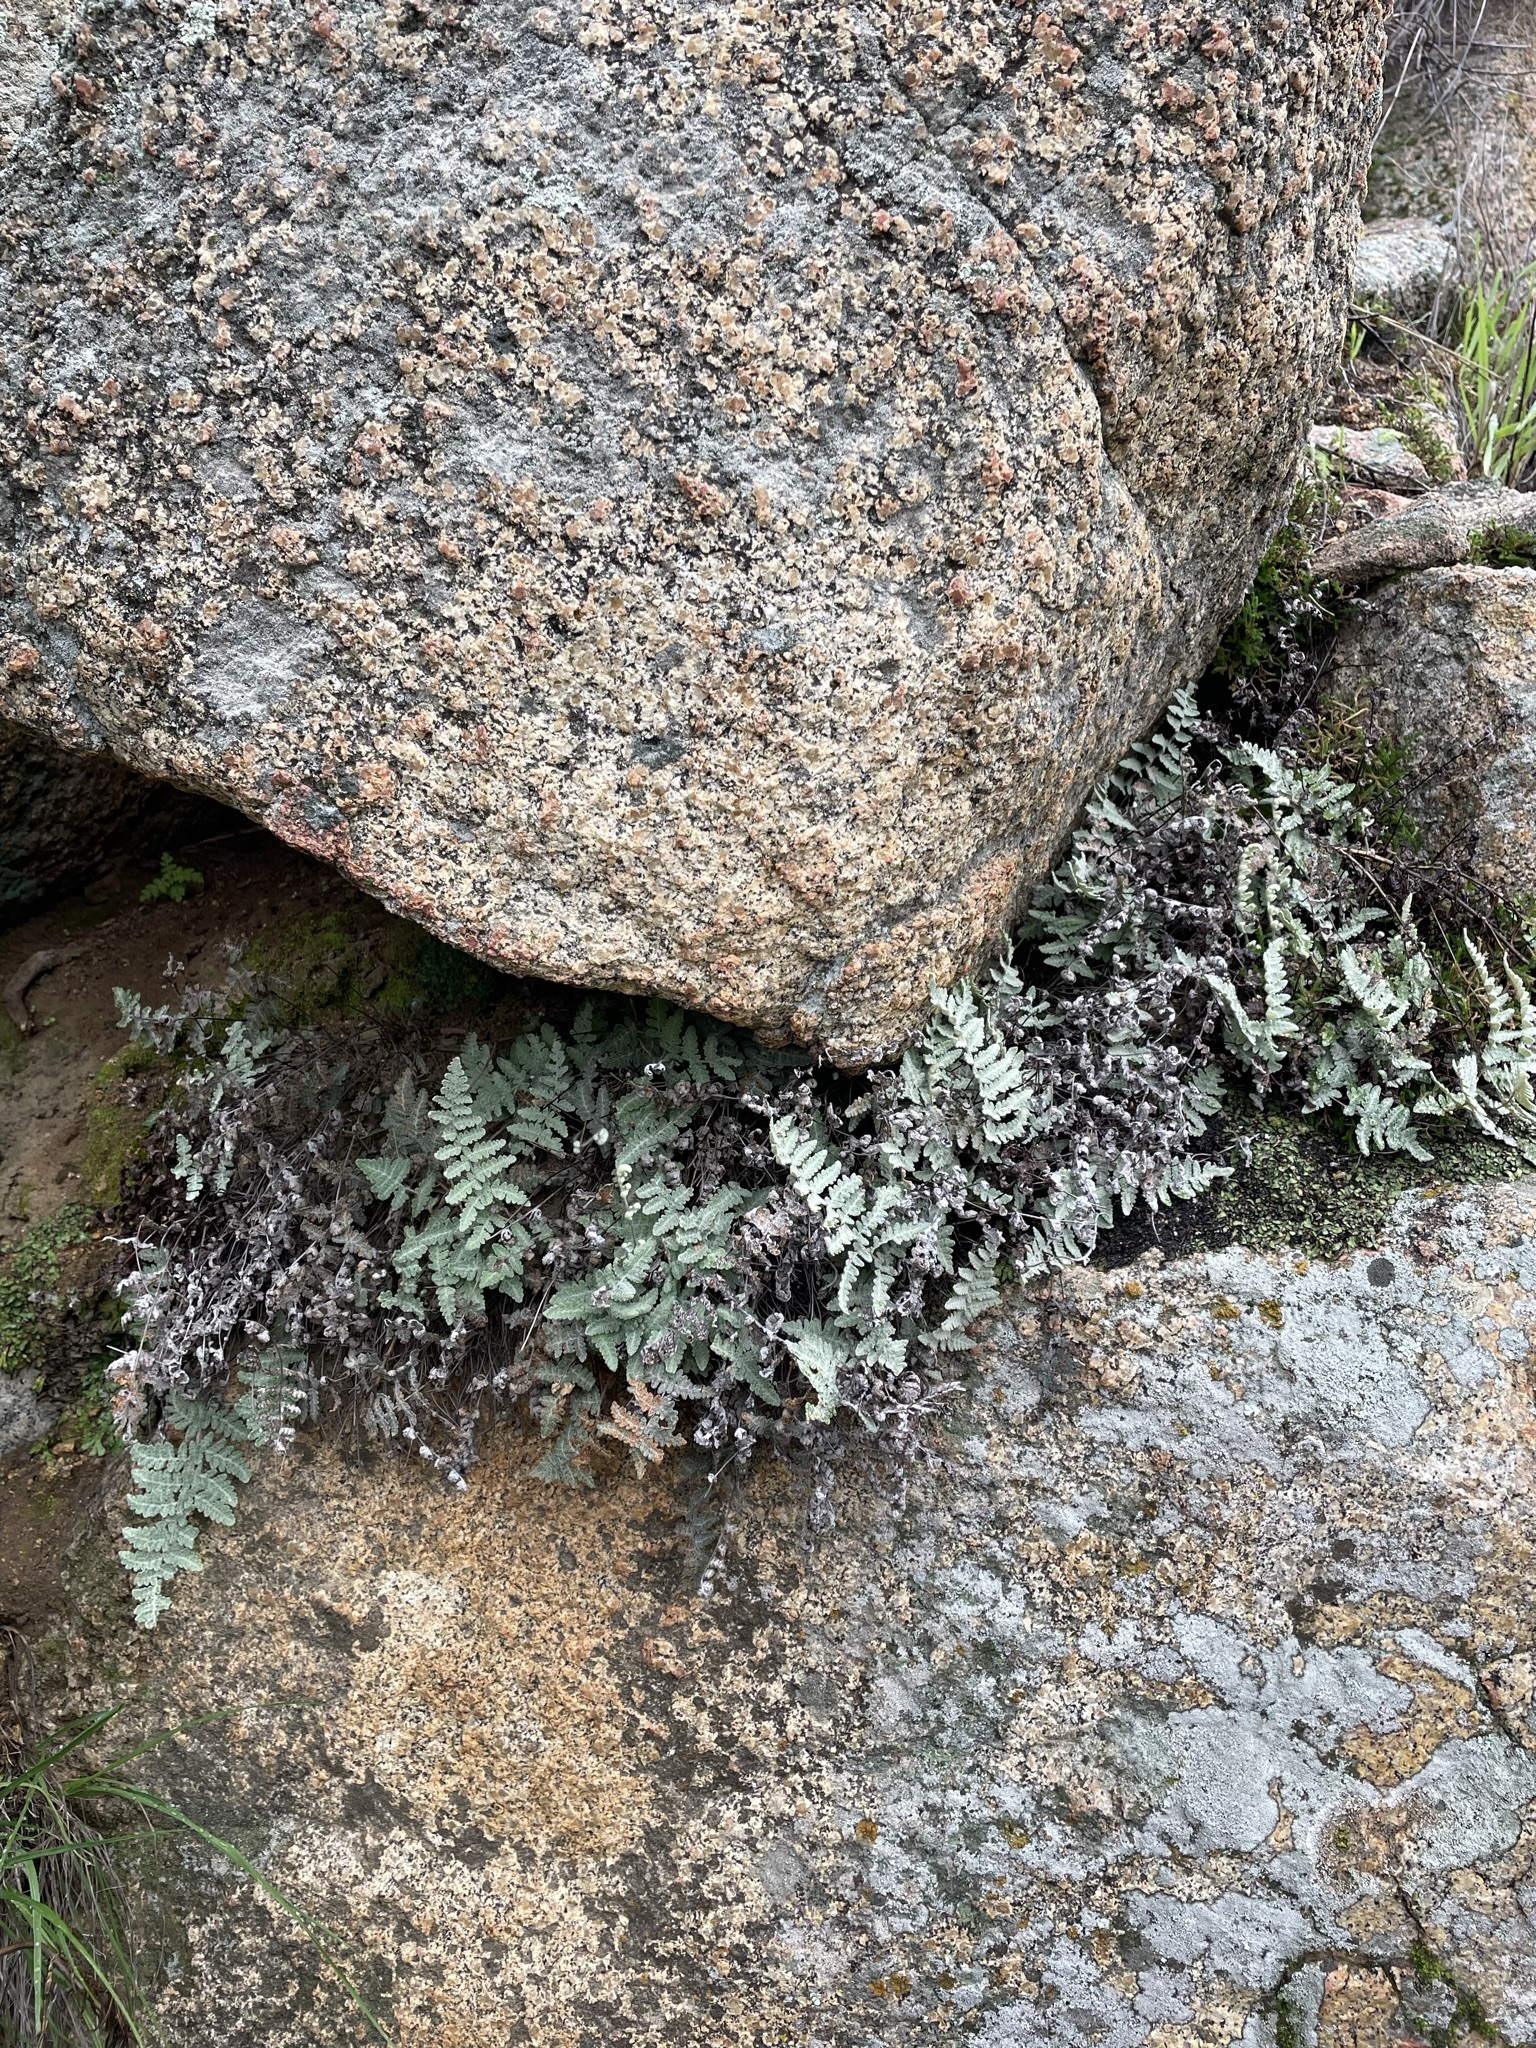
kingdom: Plantae
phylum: Tracheophyta
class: Polypodiopsida
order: Polypodiales
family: Pteridaceae
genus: Myriopteris
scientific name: Myriopteris newberryi
